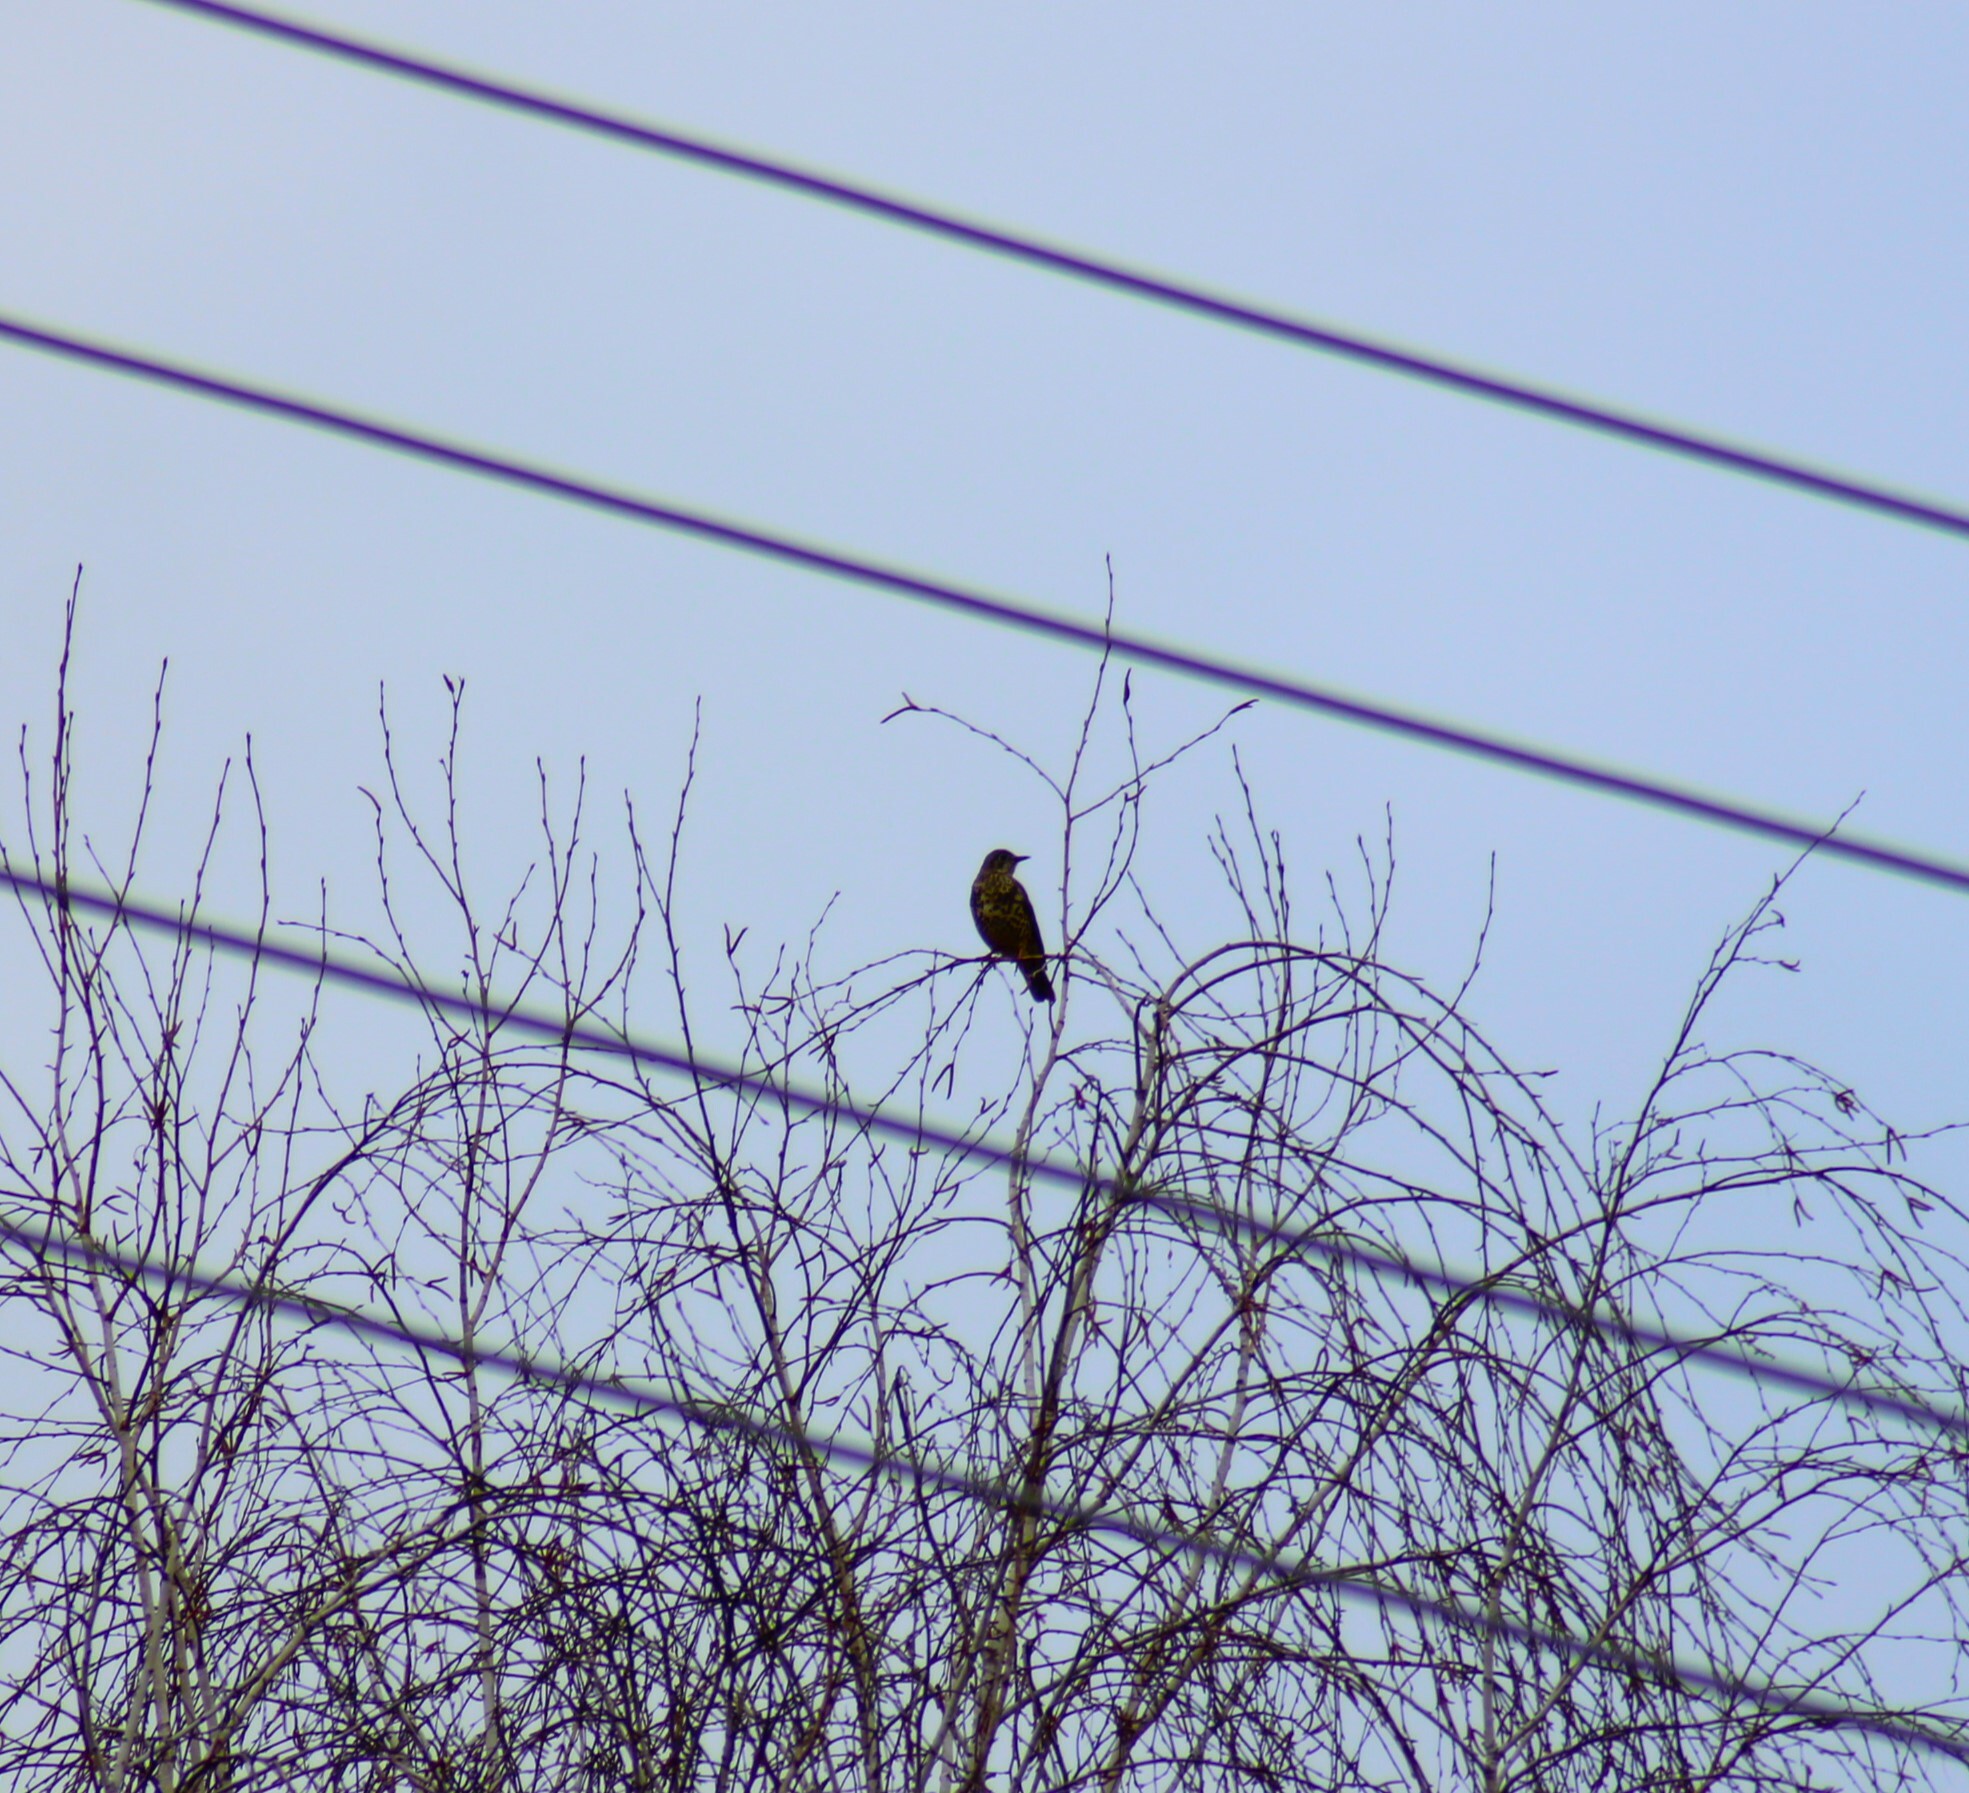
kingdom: Animalia
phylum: Chordata
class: Aves
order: Passeriformes
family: Turdidae
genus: Turdus
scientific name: Turdus viscivorus
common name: Mistle thrush
